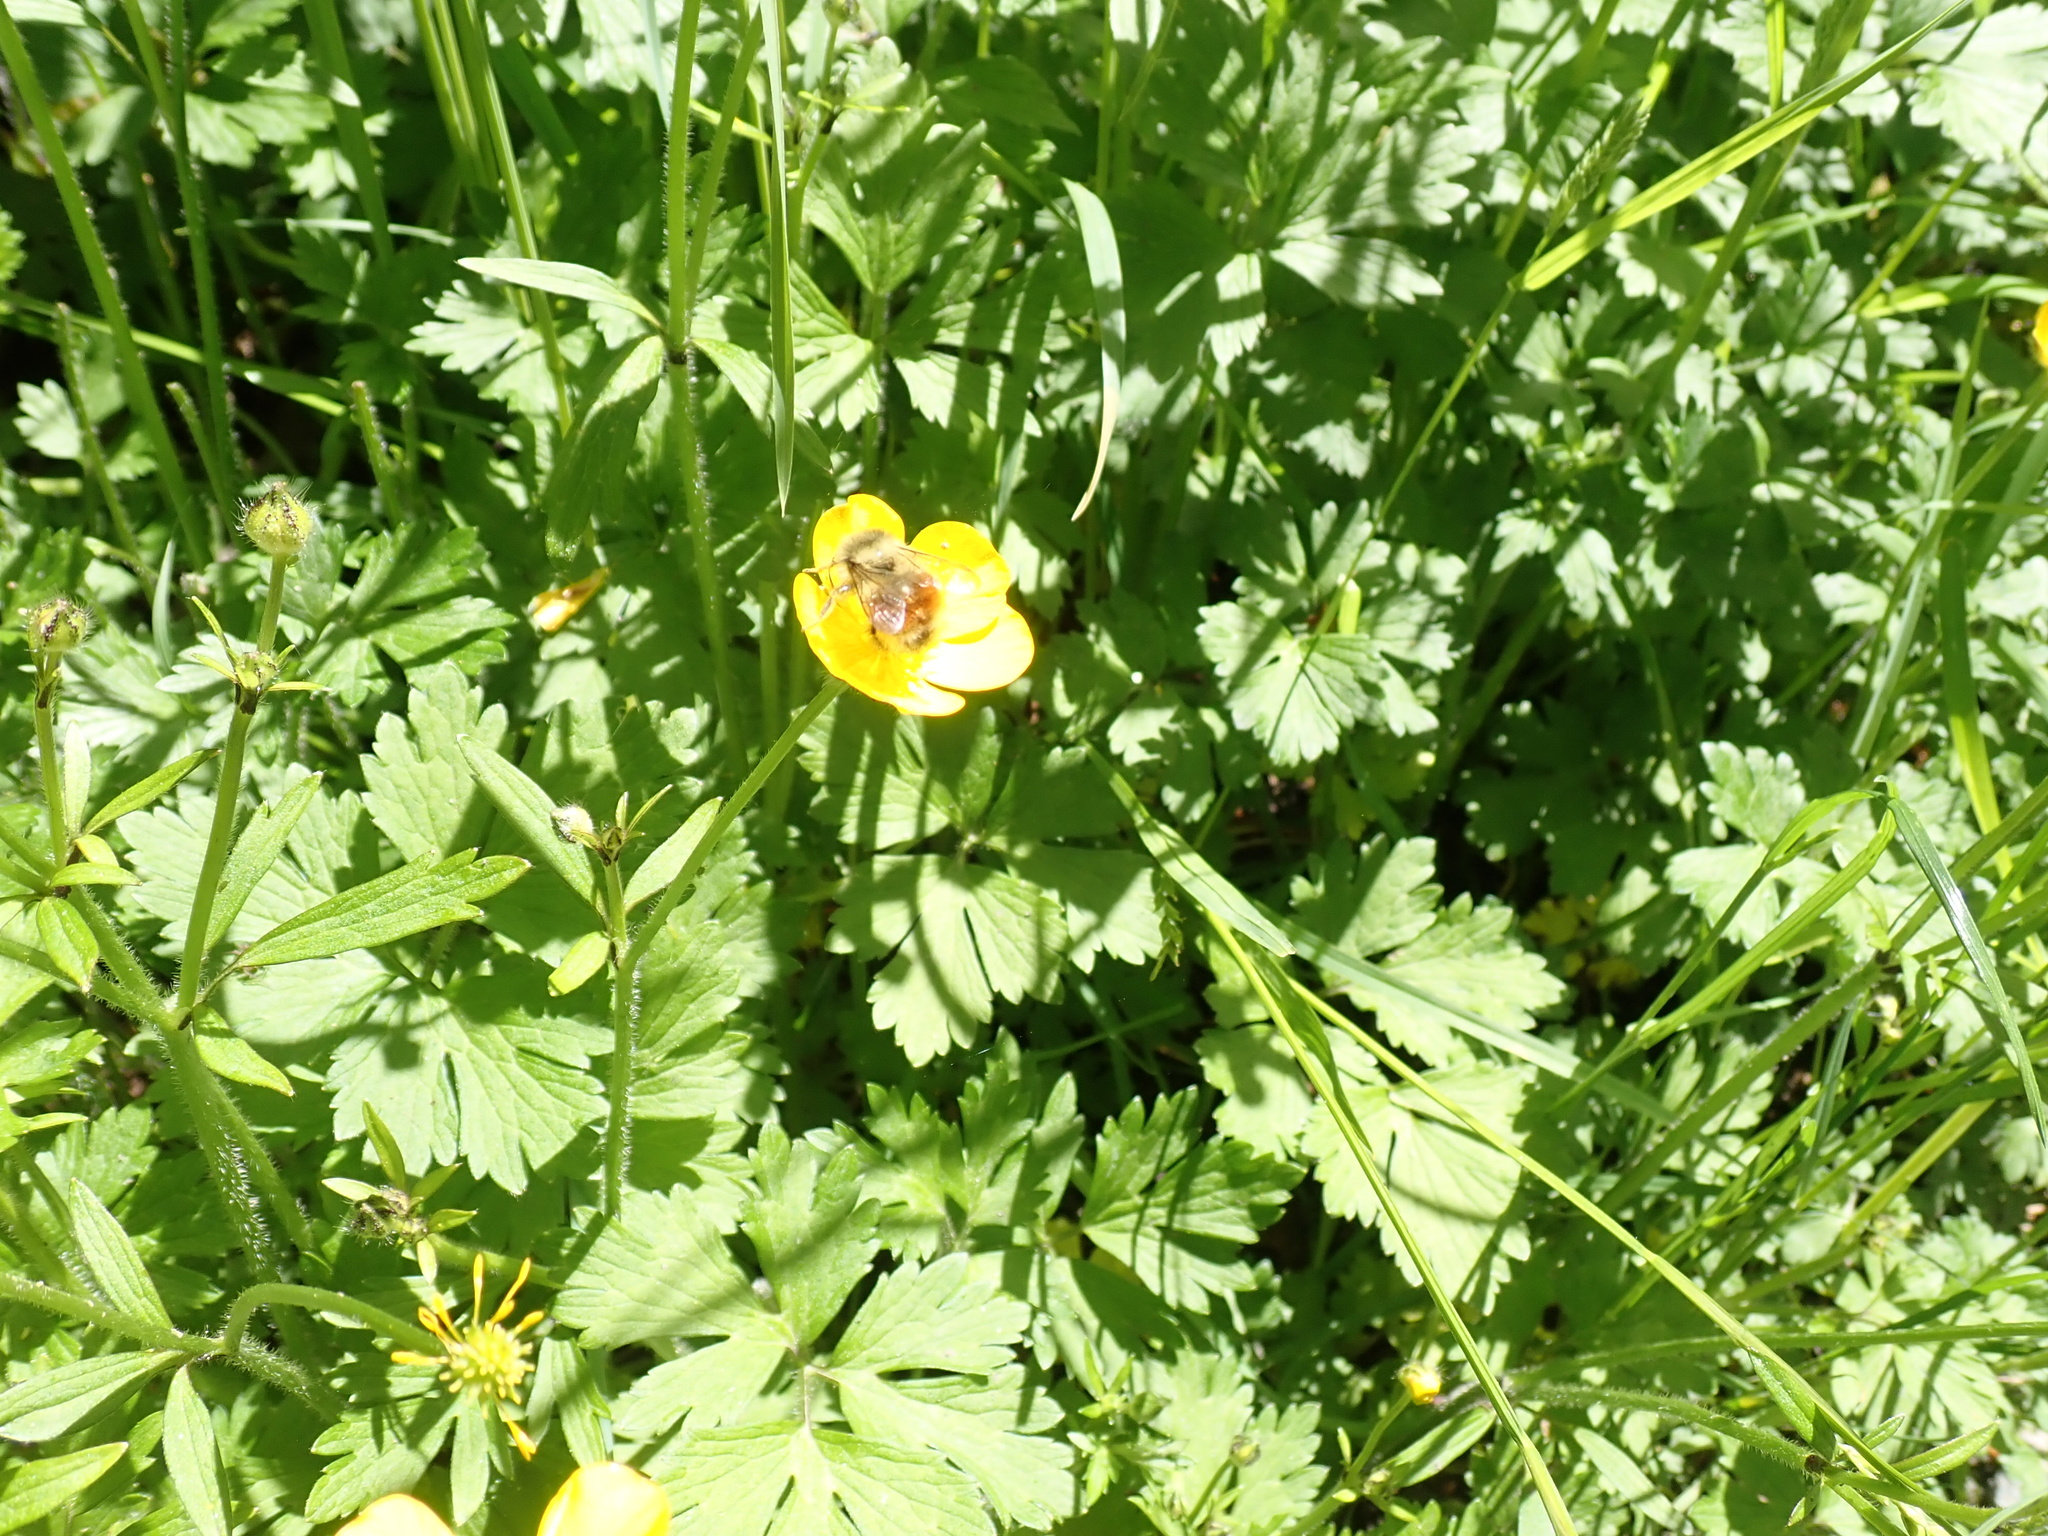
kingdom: Plantae
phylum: Tracheophyta
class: Magnoliopsida
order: Ranunculales
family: Ranunculaceae
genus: Ranunculus
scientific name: Ranunculus repens
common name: Creeping buttercup
